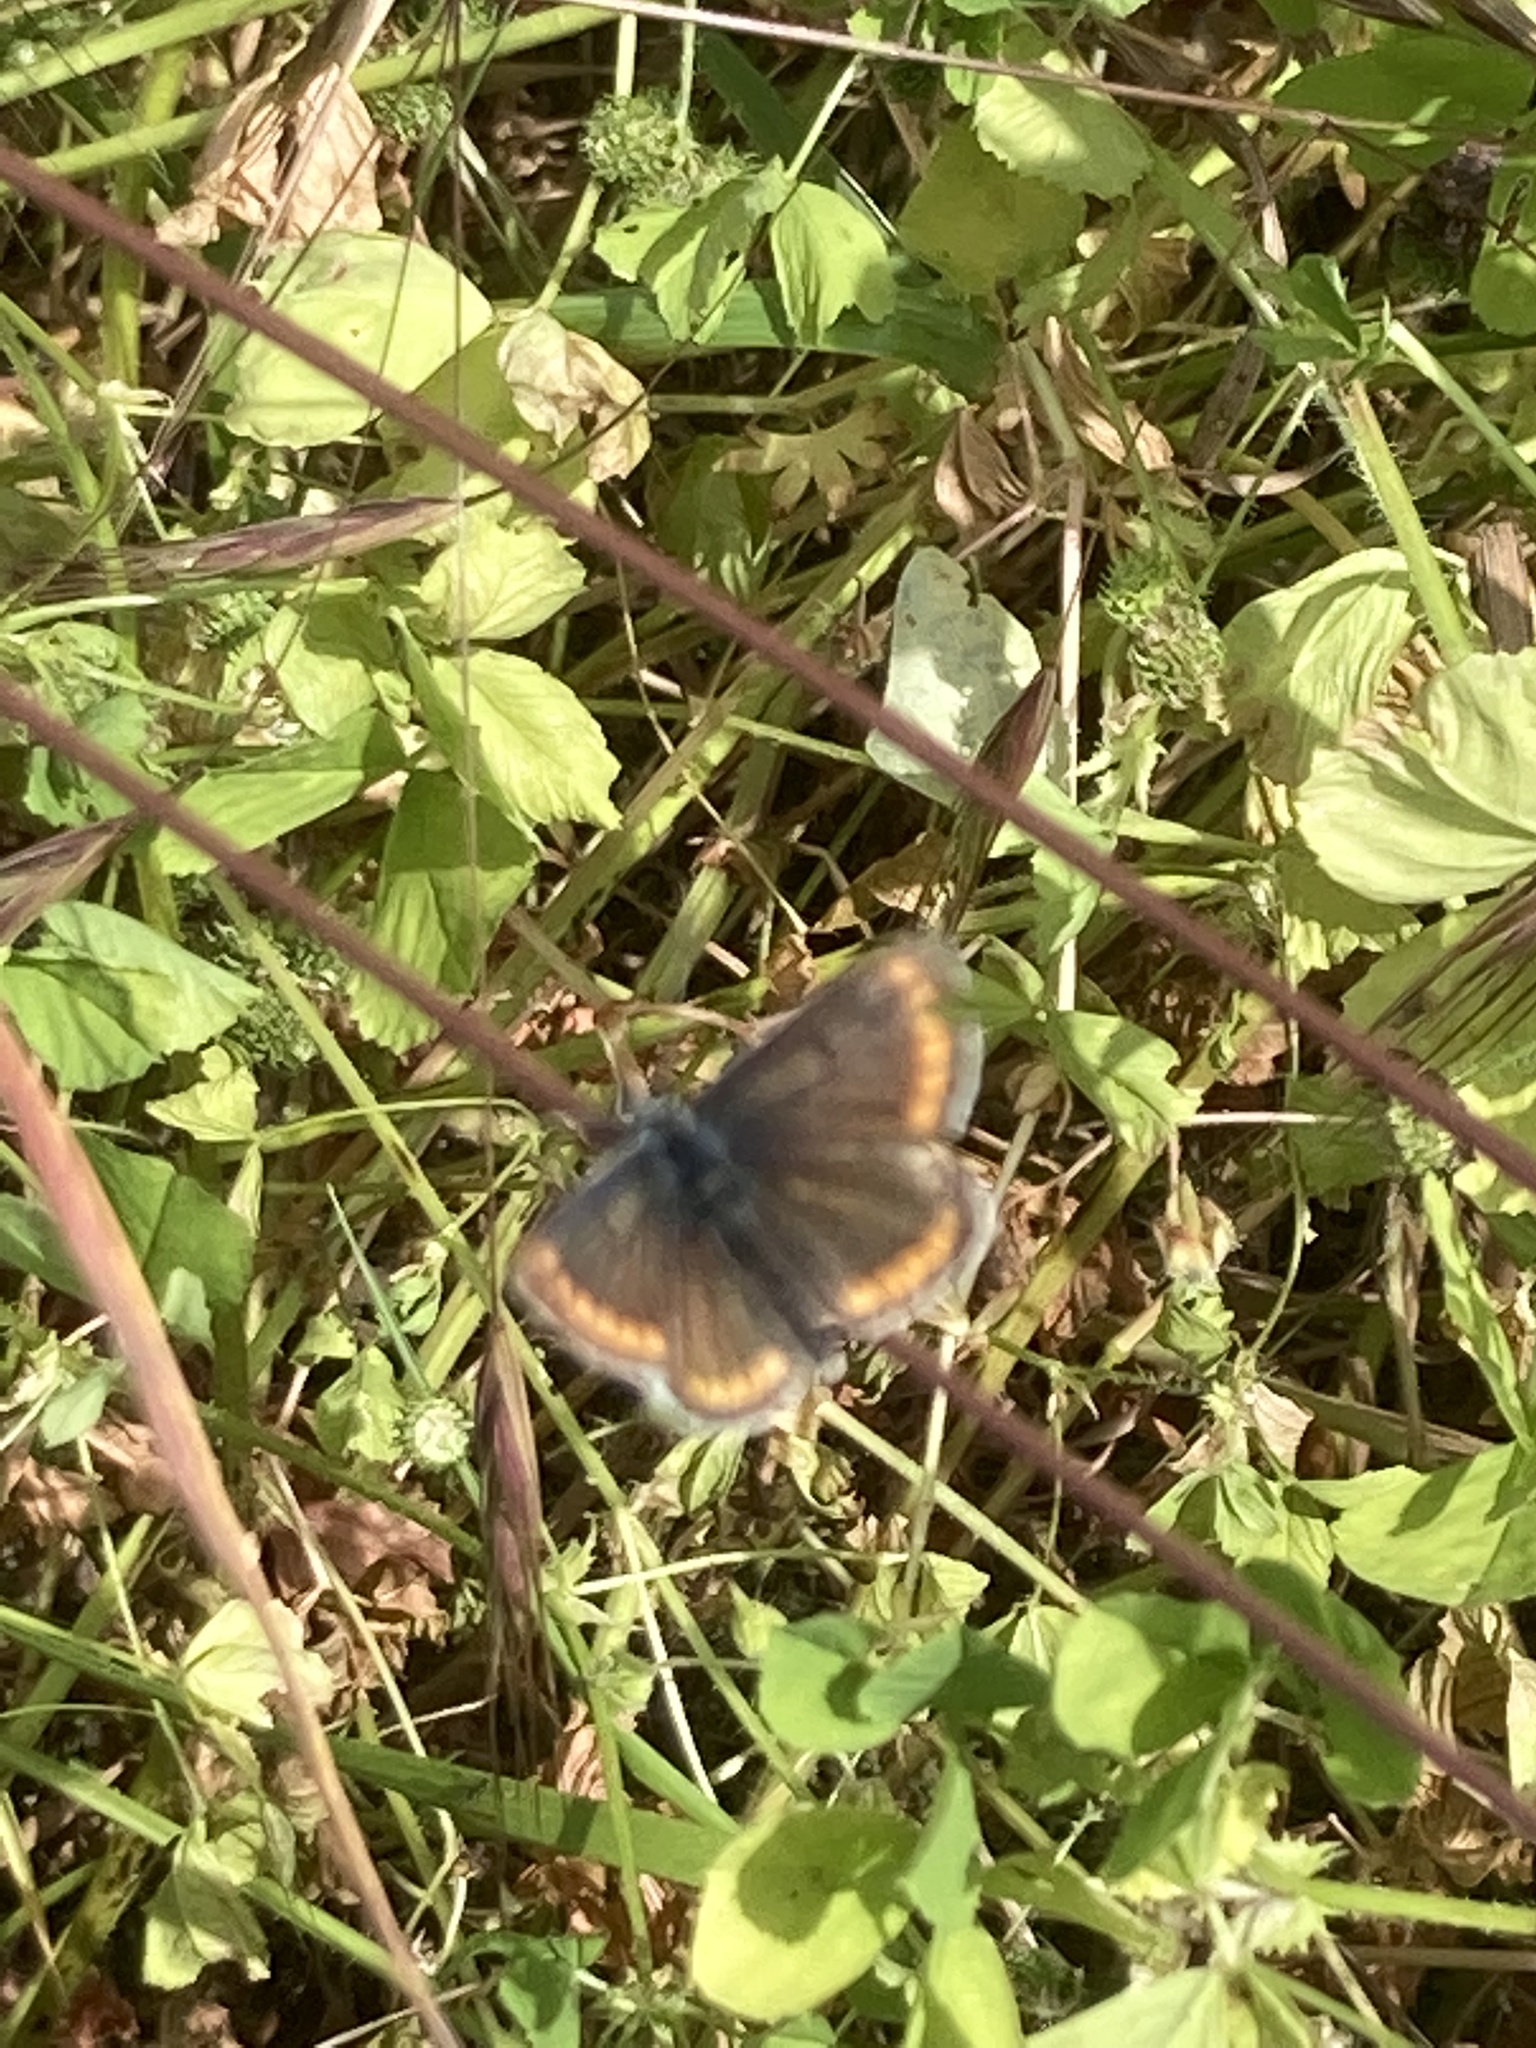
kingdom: Animalia
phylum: Arthropoda
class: Insecta
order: Lepidoptera
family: Lycaenidae
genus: Aricia
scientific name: Aricia agestis
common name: Brown argus
